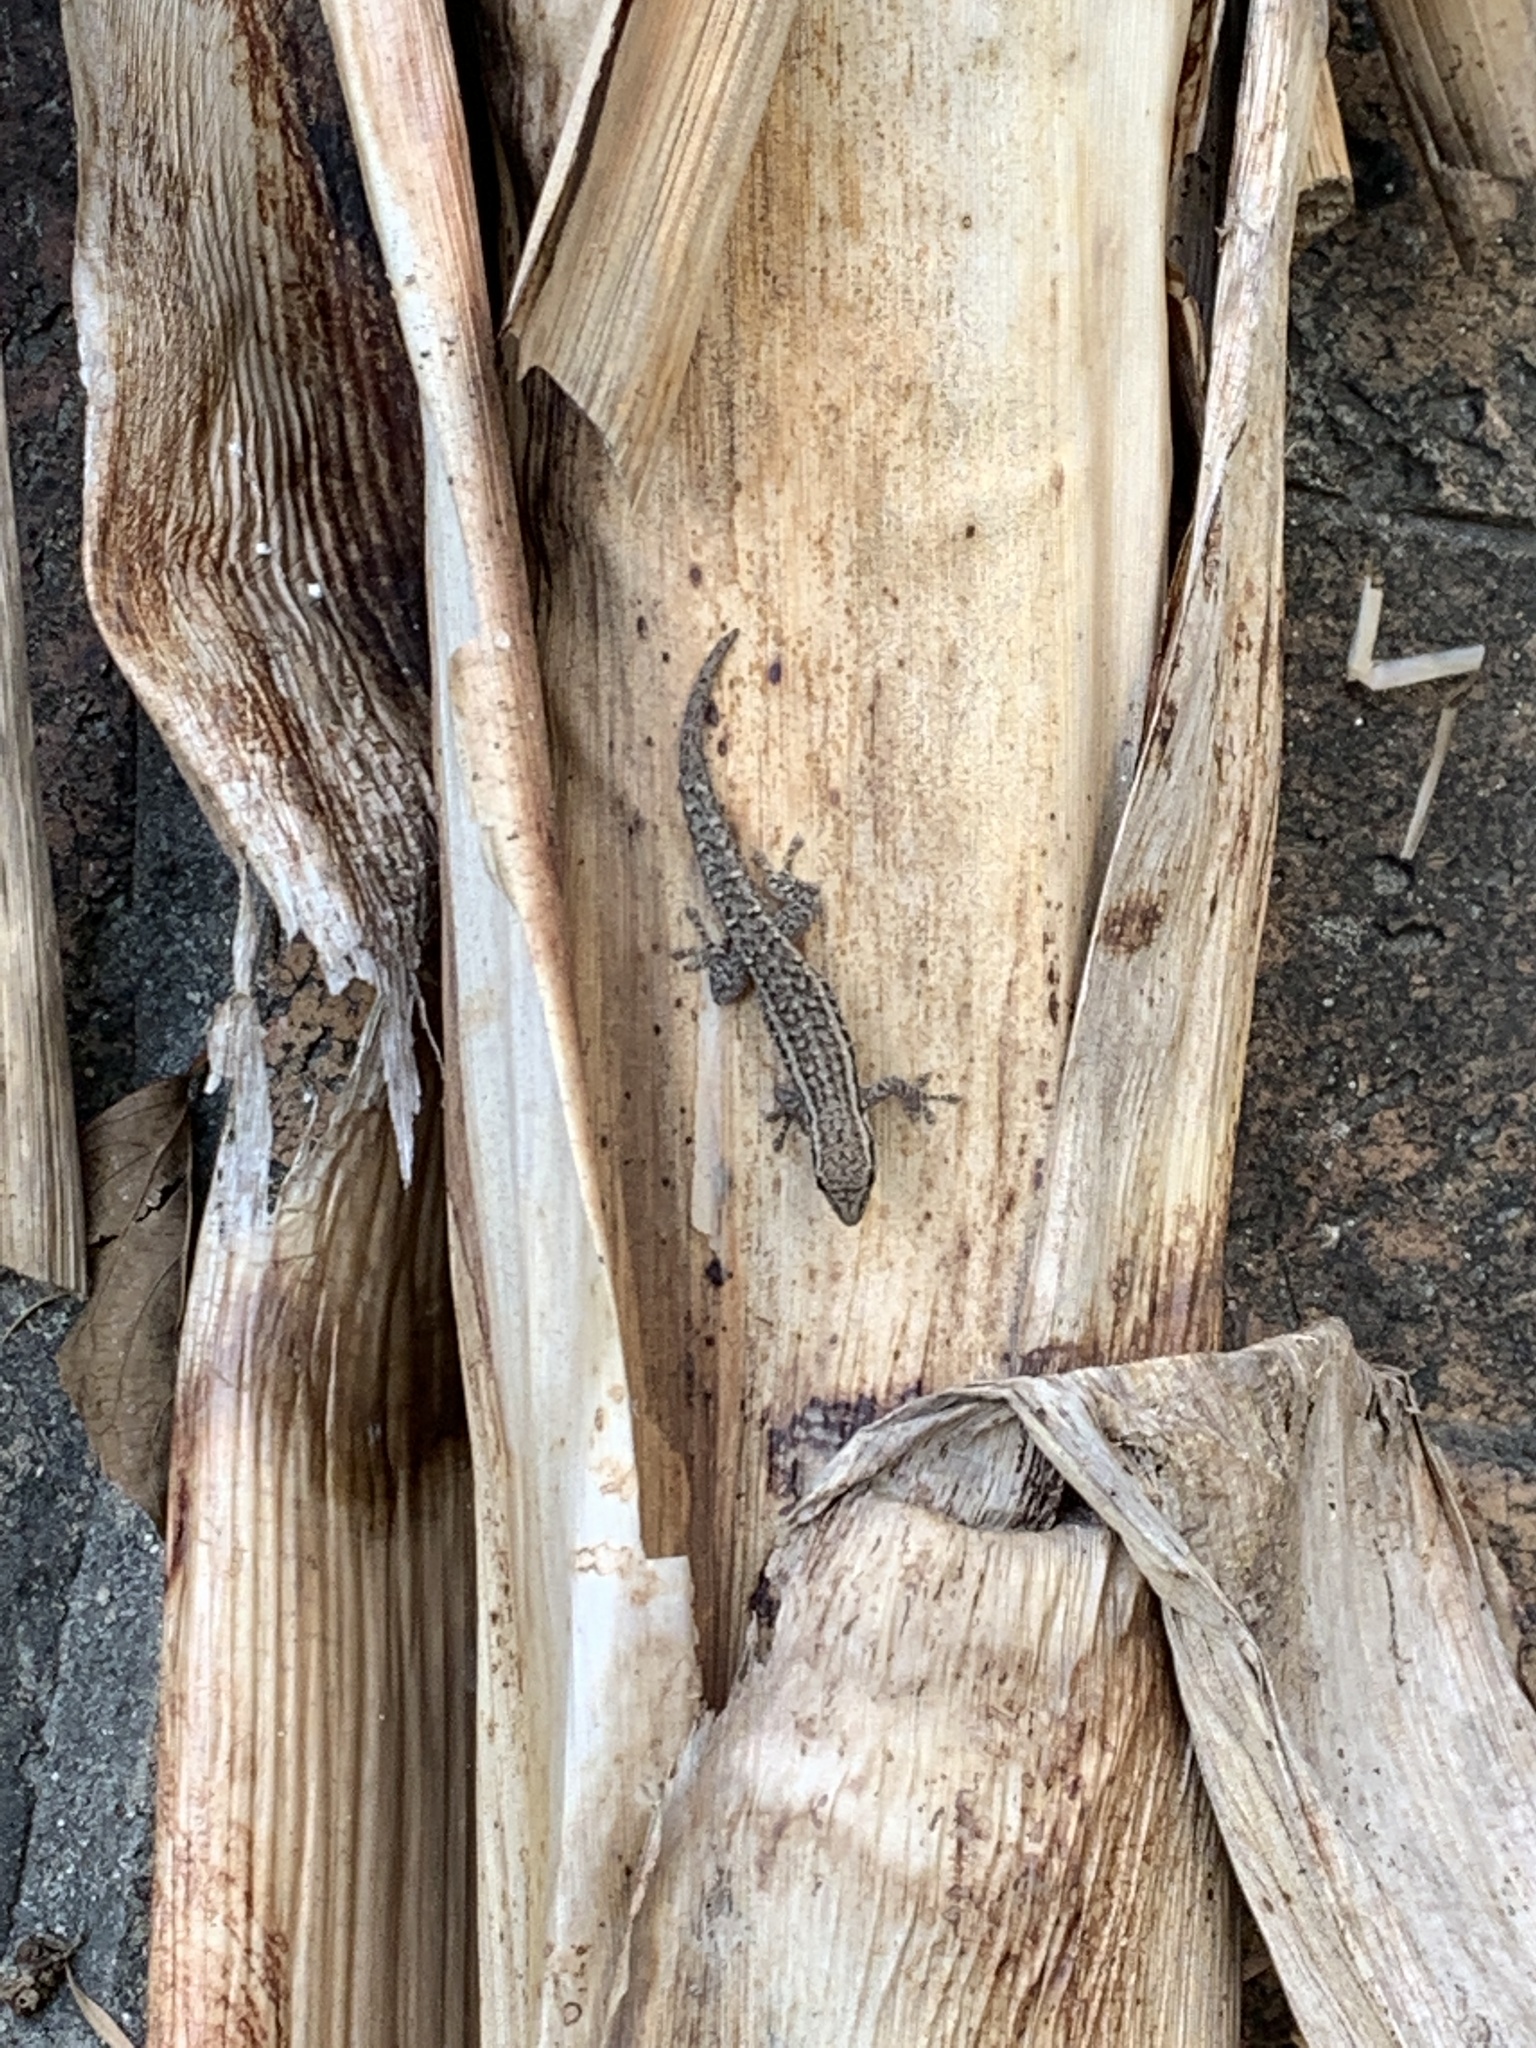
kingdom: Animalia
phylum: Chordata
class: Squamata
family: Gekkonidae
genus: Lygodactylus
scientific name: Lygodactylus capensis
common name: Cape dwarf gecko
